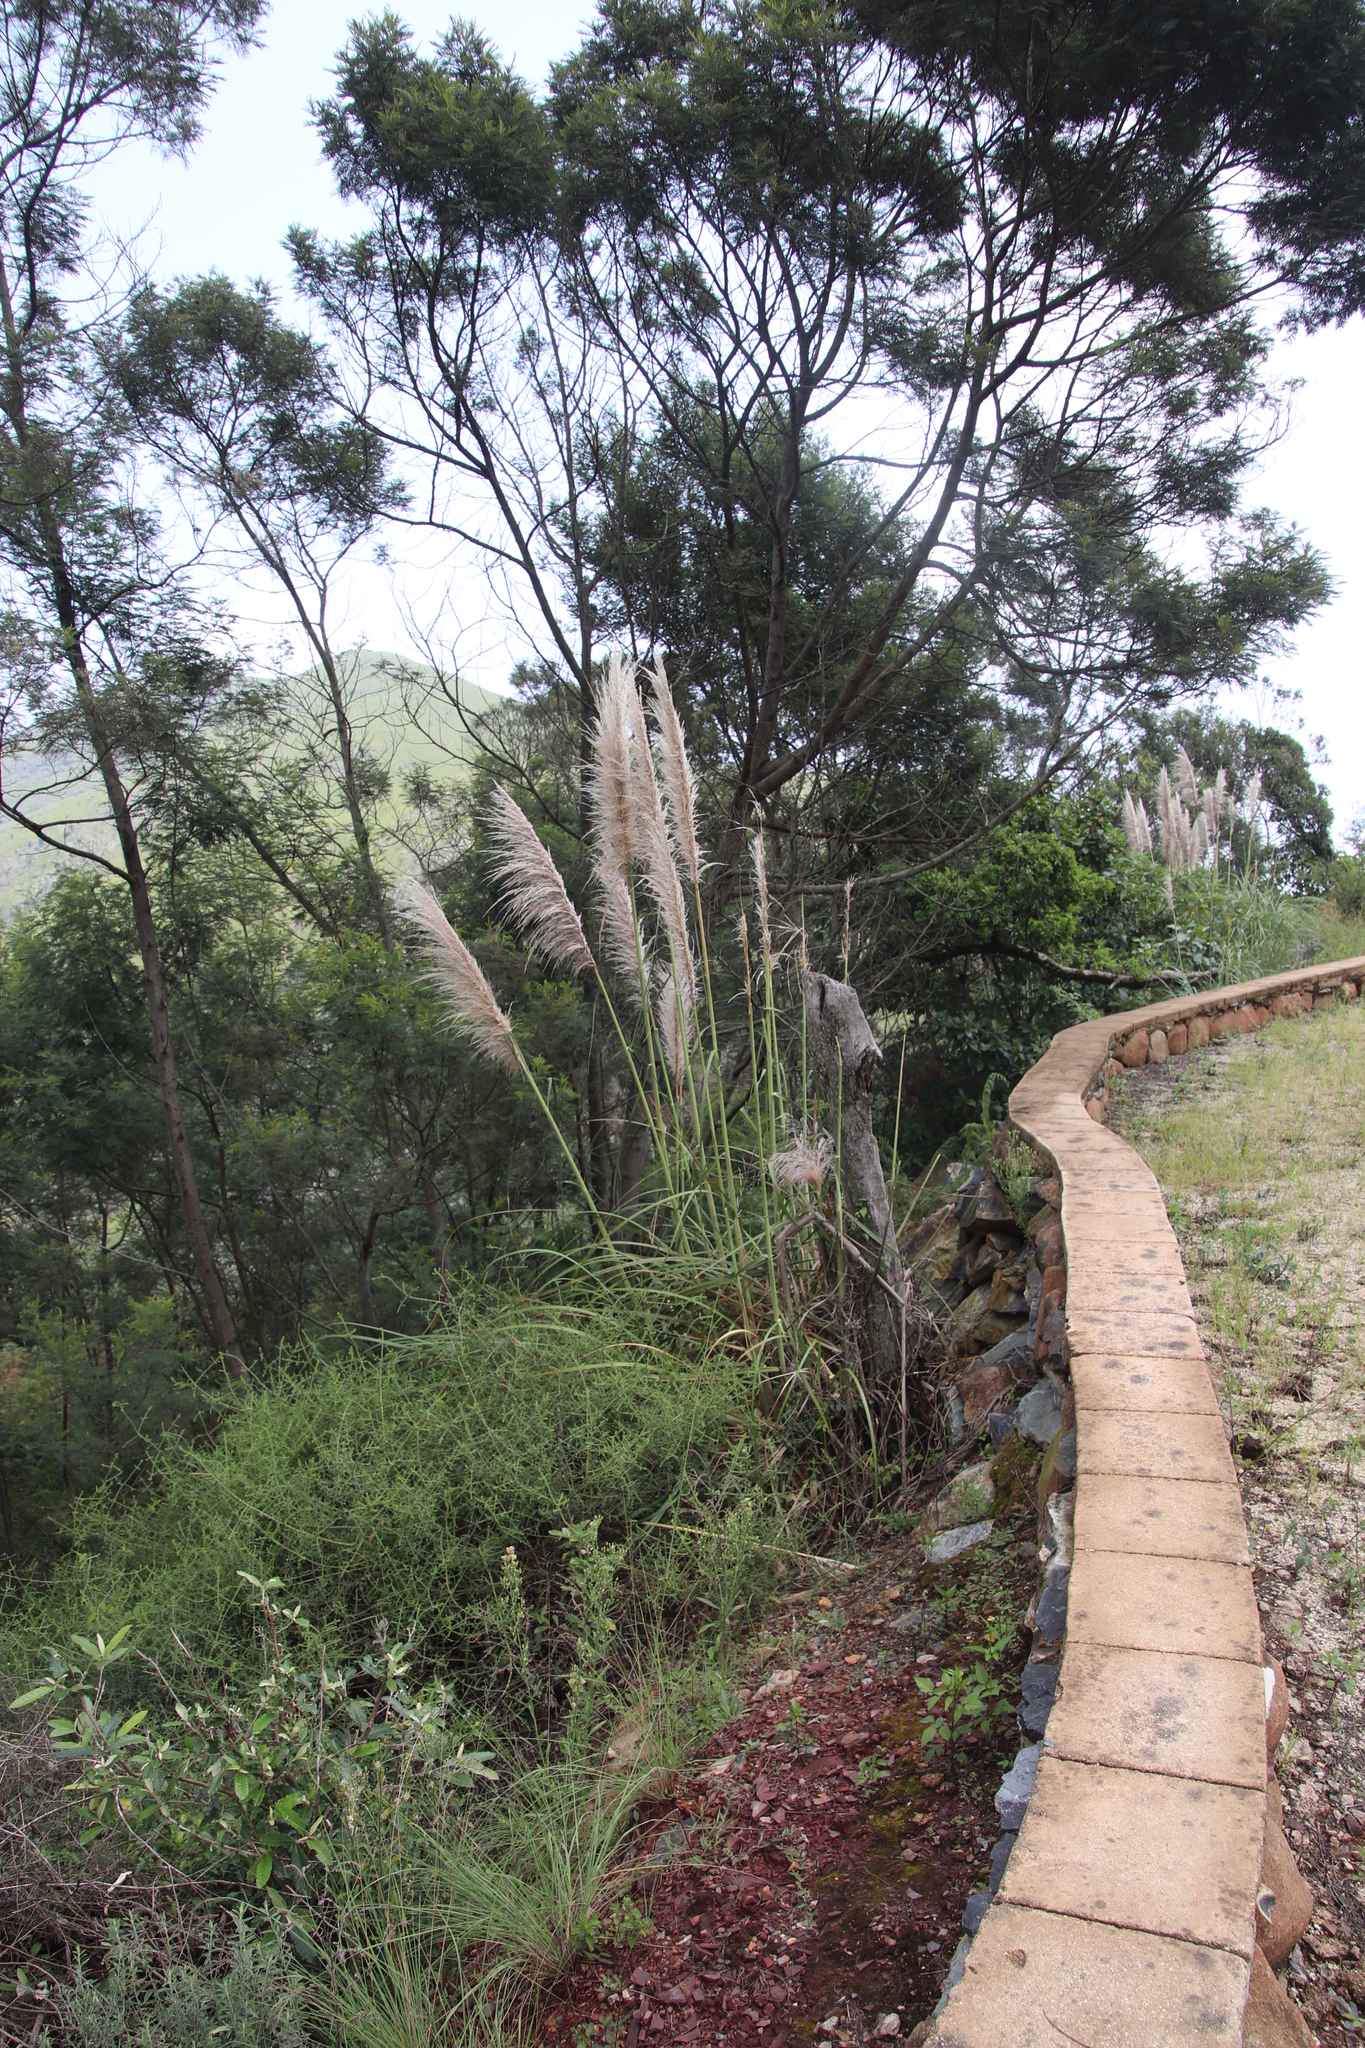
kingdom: Plantae
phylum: Tracheophyta
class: Liliopsida
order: Poales
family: Poaceae
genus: Cortaderia
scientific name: Cortaderia selloana
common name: Uruguayan pampas grass
